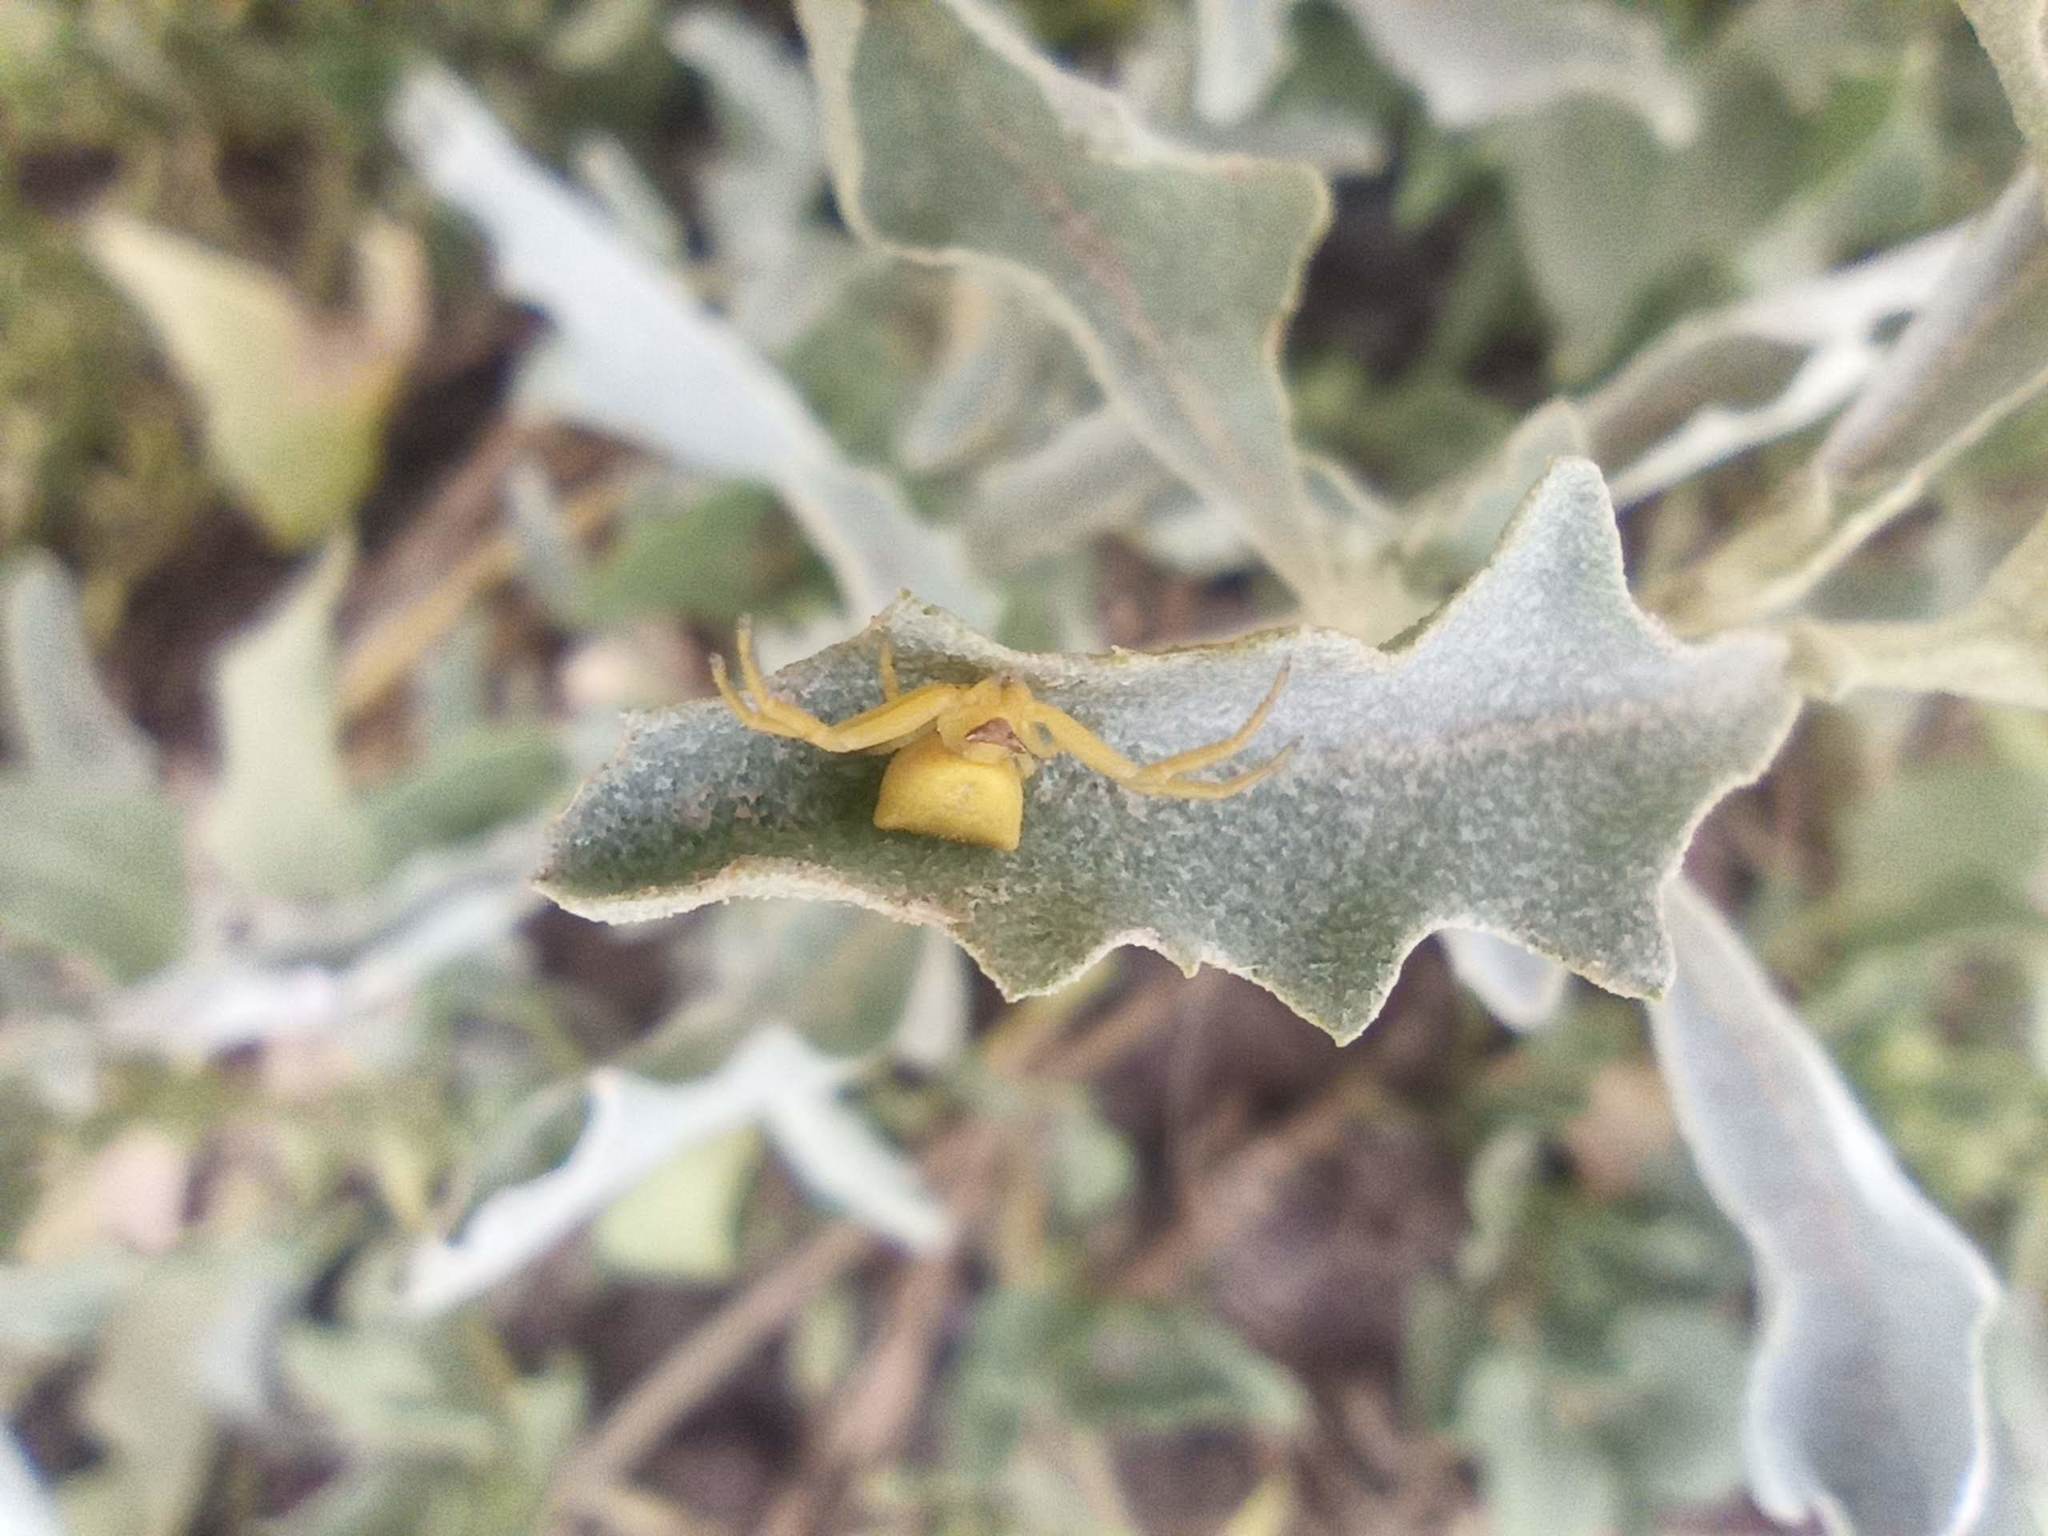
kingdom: Animalia
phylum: Arthropoda
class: Arachnida
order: Araneae
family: Thomisidae
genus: Thomisus
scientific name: Thomisus onustus
